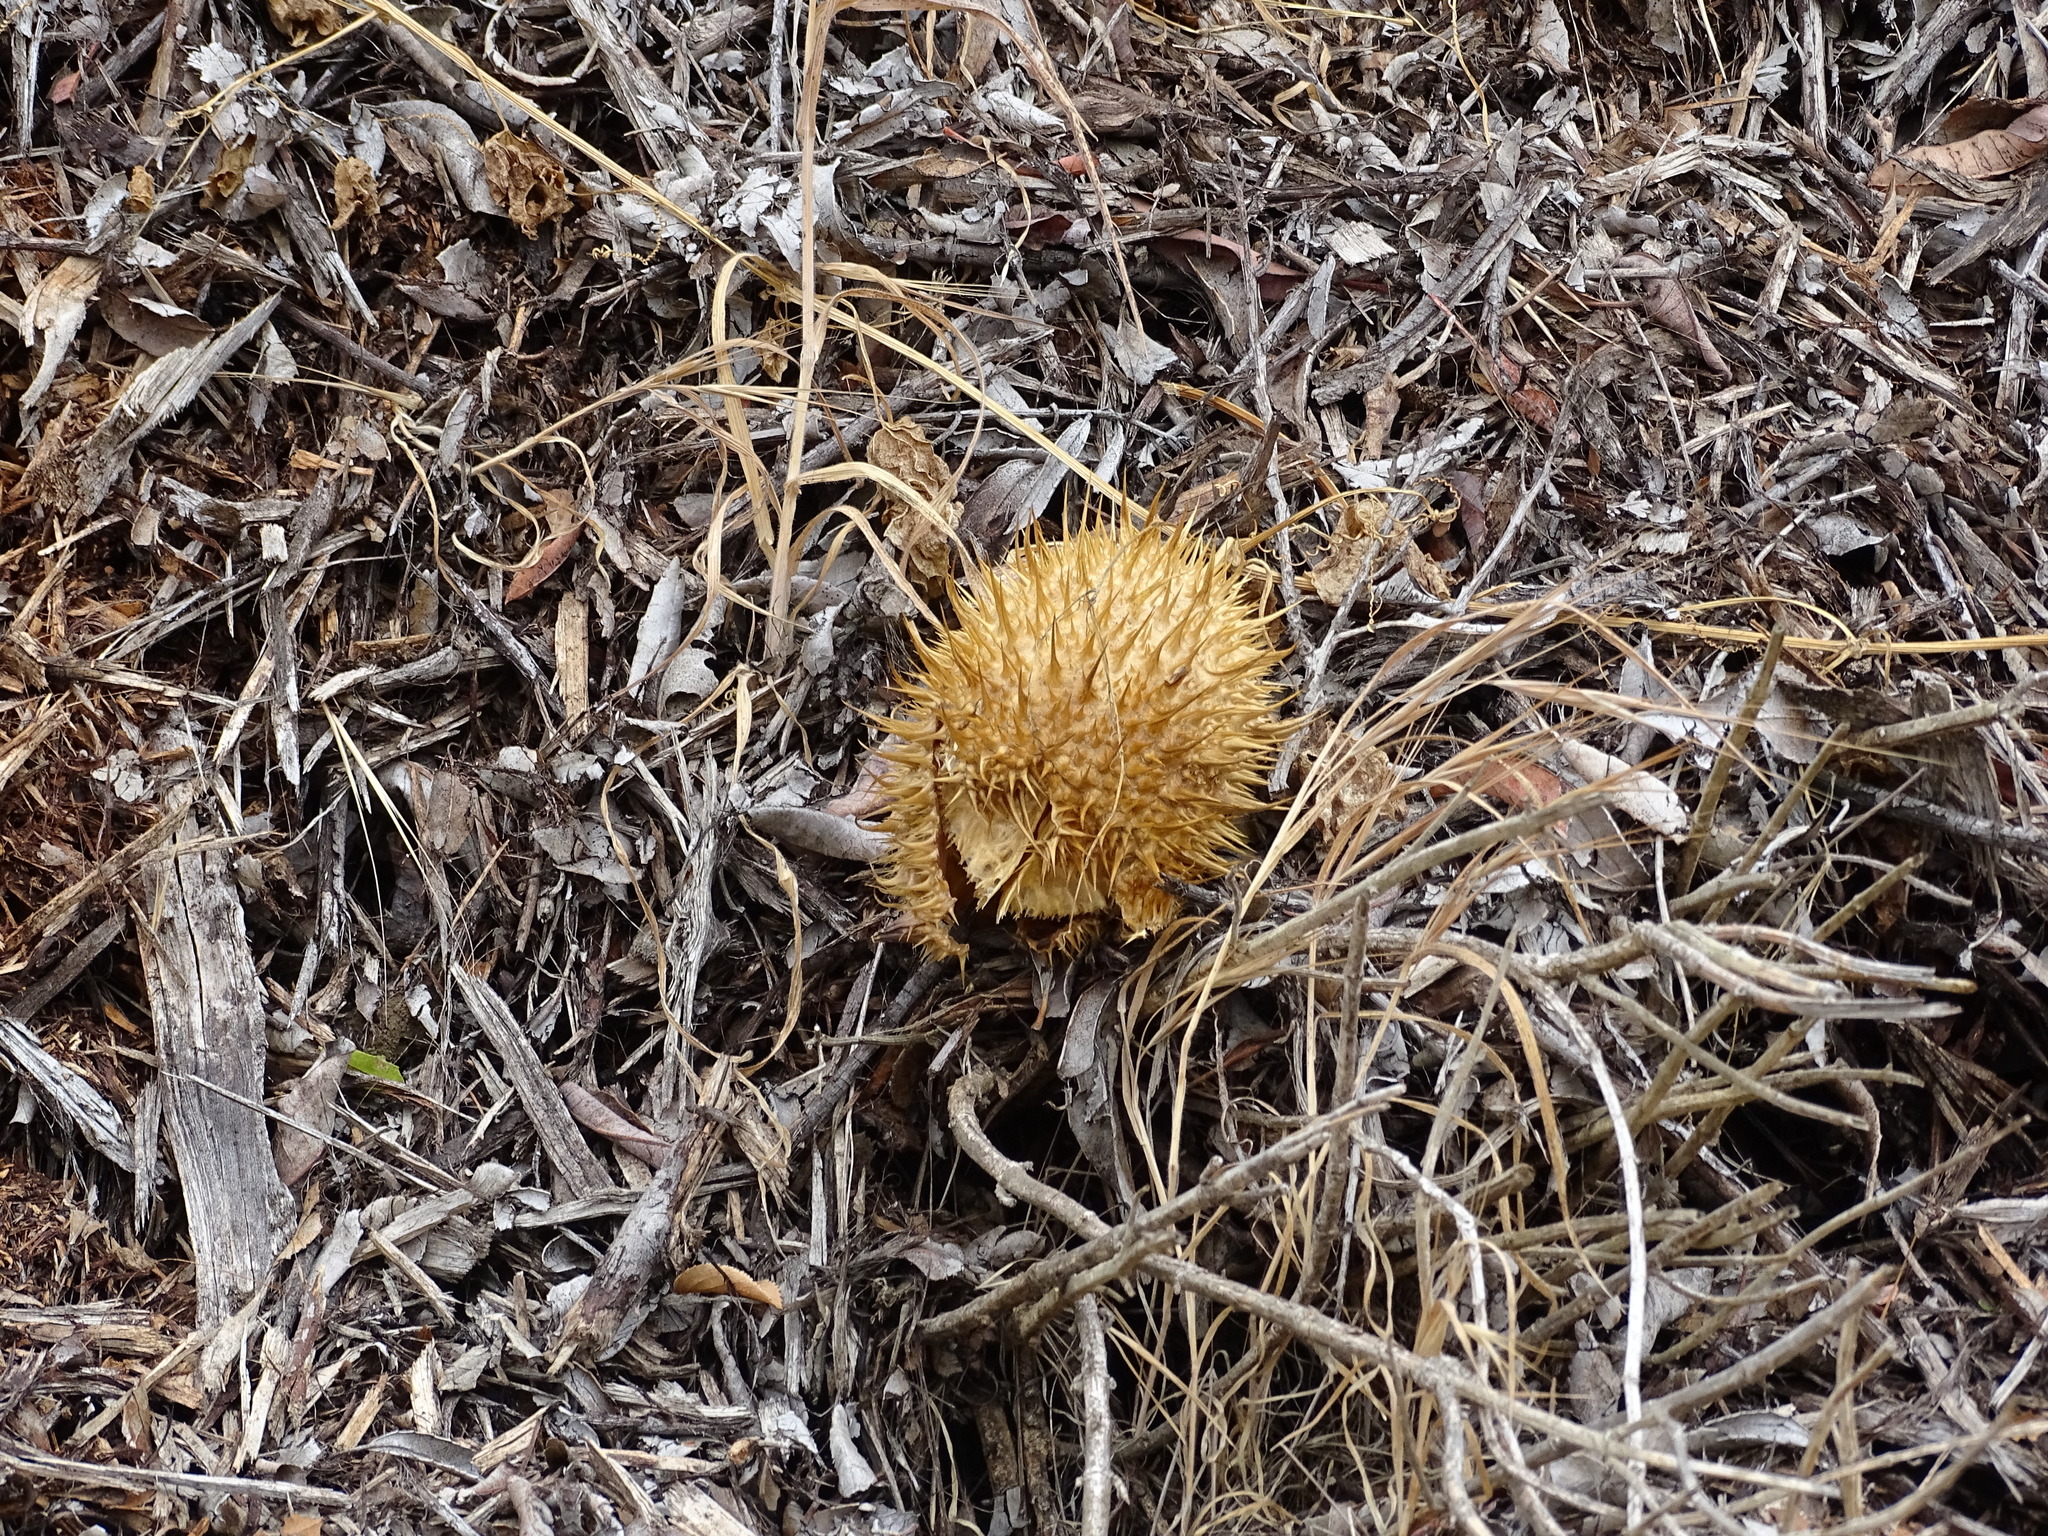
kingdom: Plantae
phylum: Tracheophyta
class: Magnoliopsida
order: Cucurbitales
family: Cucurbitaceae
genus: Marah
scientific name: Marah macrocarpa
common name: Cucamonga manroot
